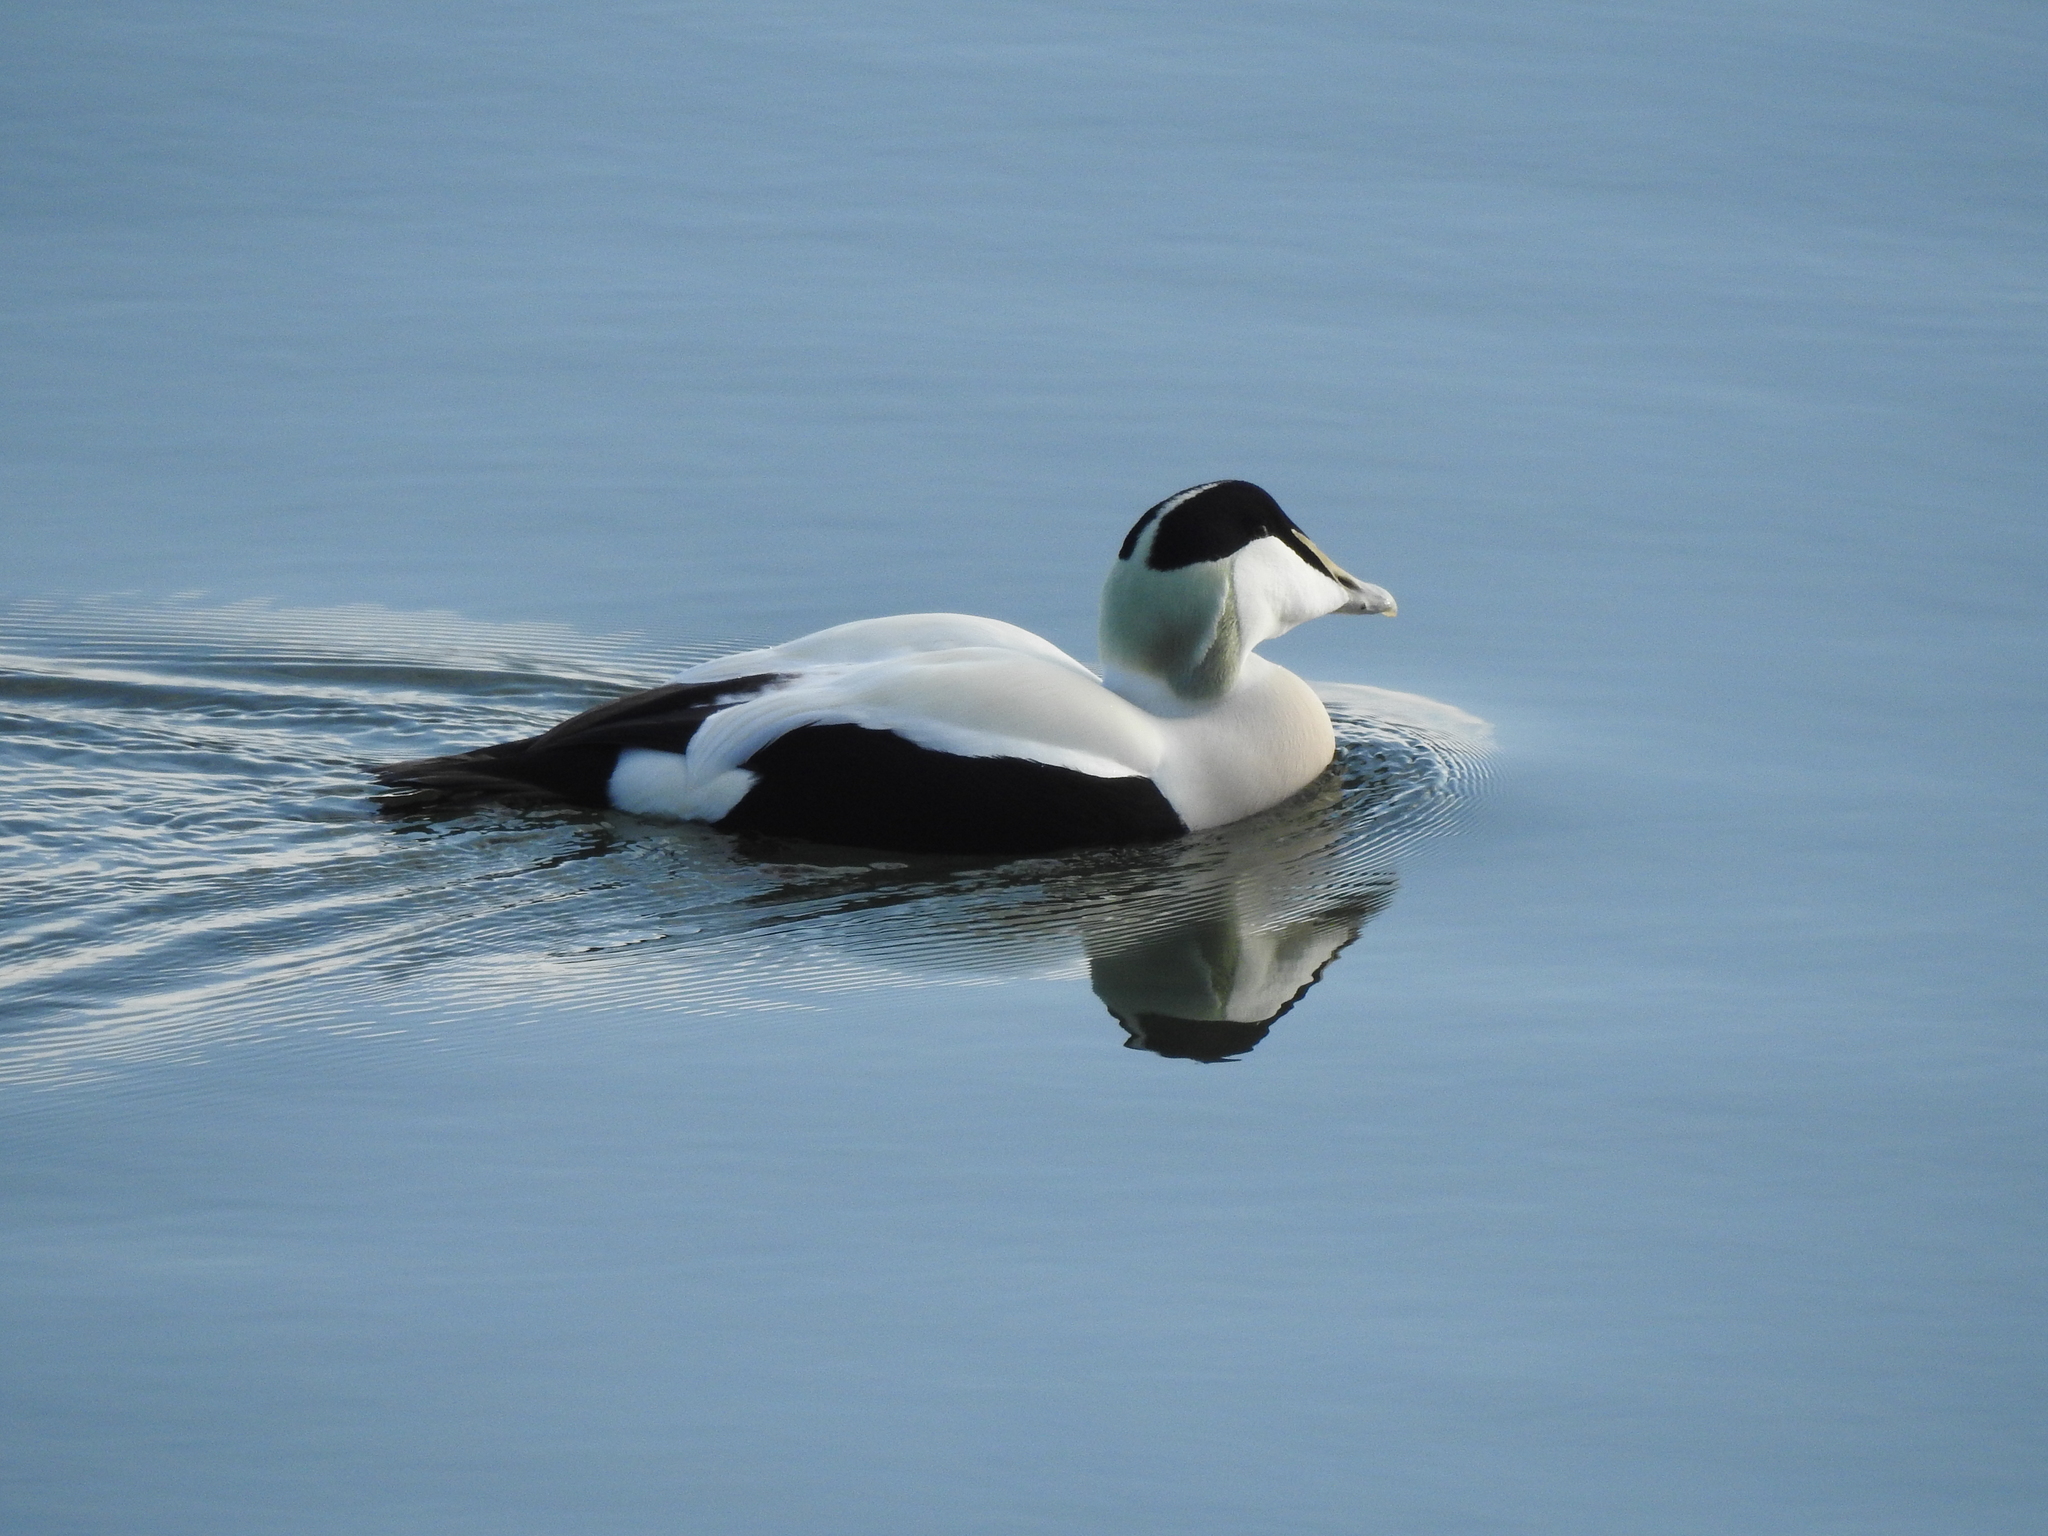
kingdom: Animalia
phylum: Chordata
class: Aves
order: Anseriformes
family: Anatidae
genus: Somateria
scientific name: Somateria mollissima
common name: Common eider
